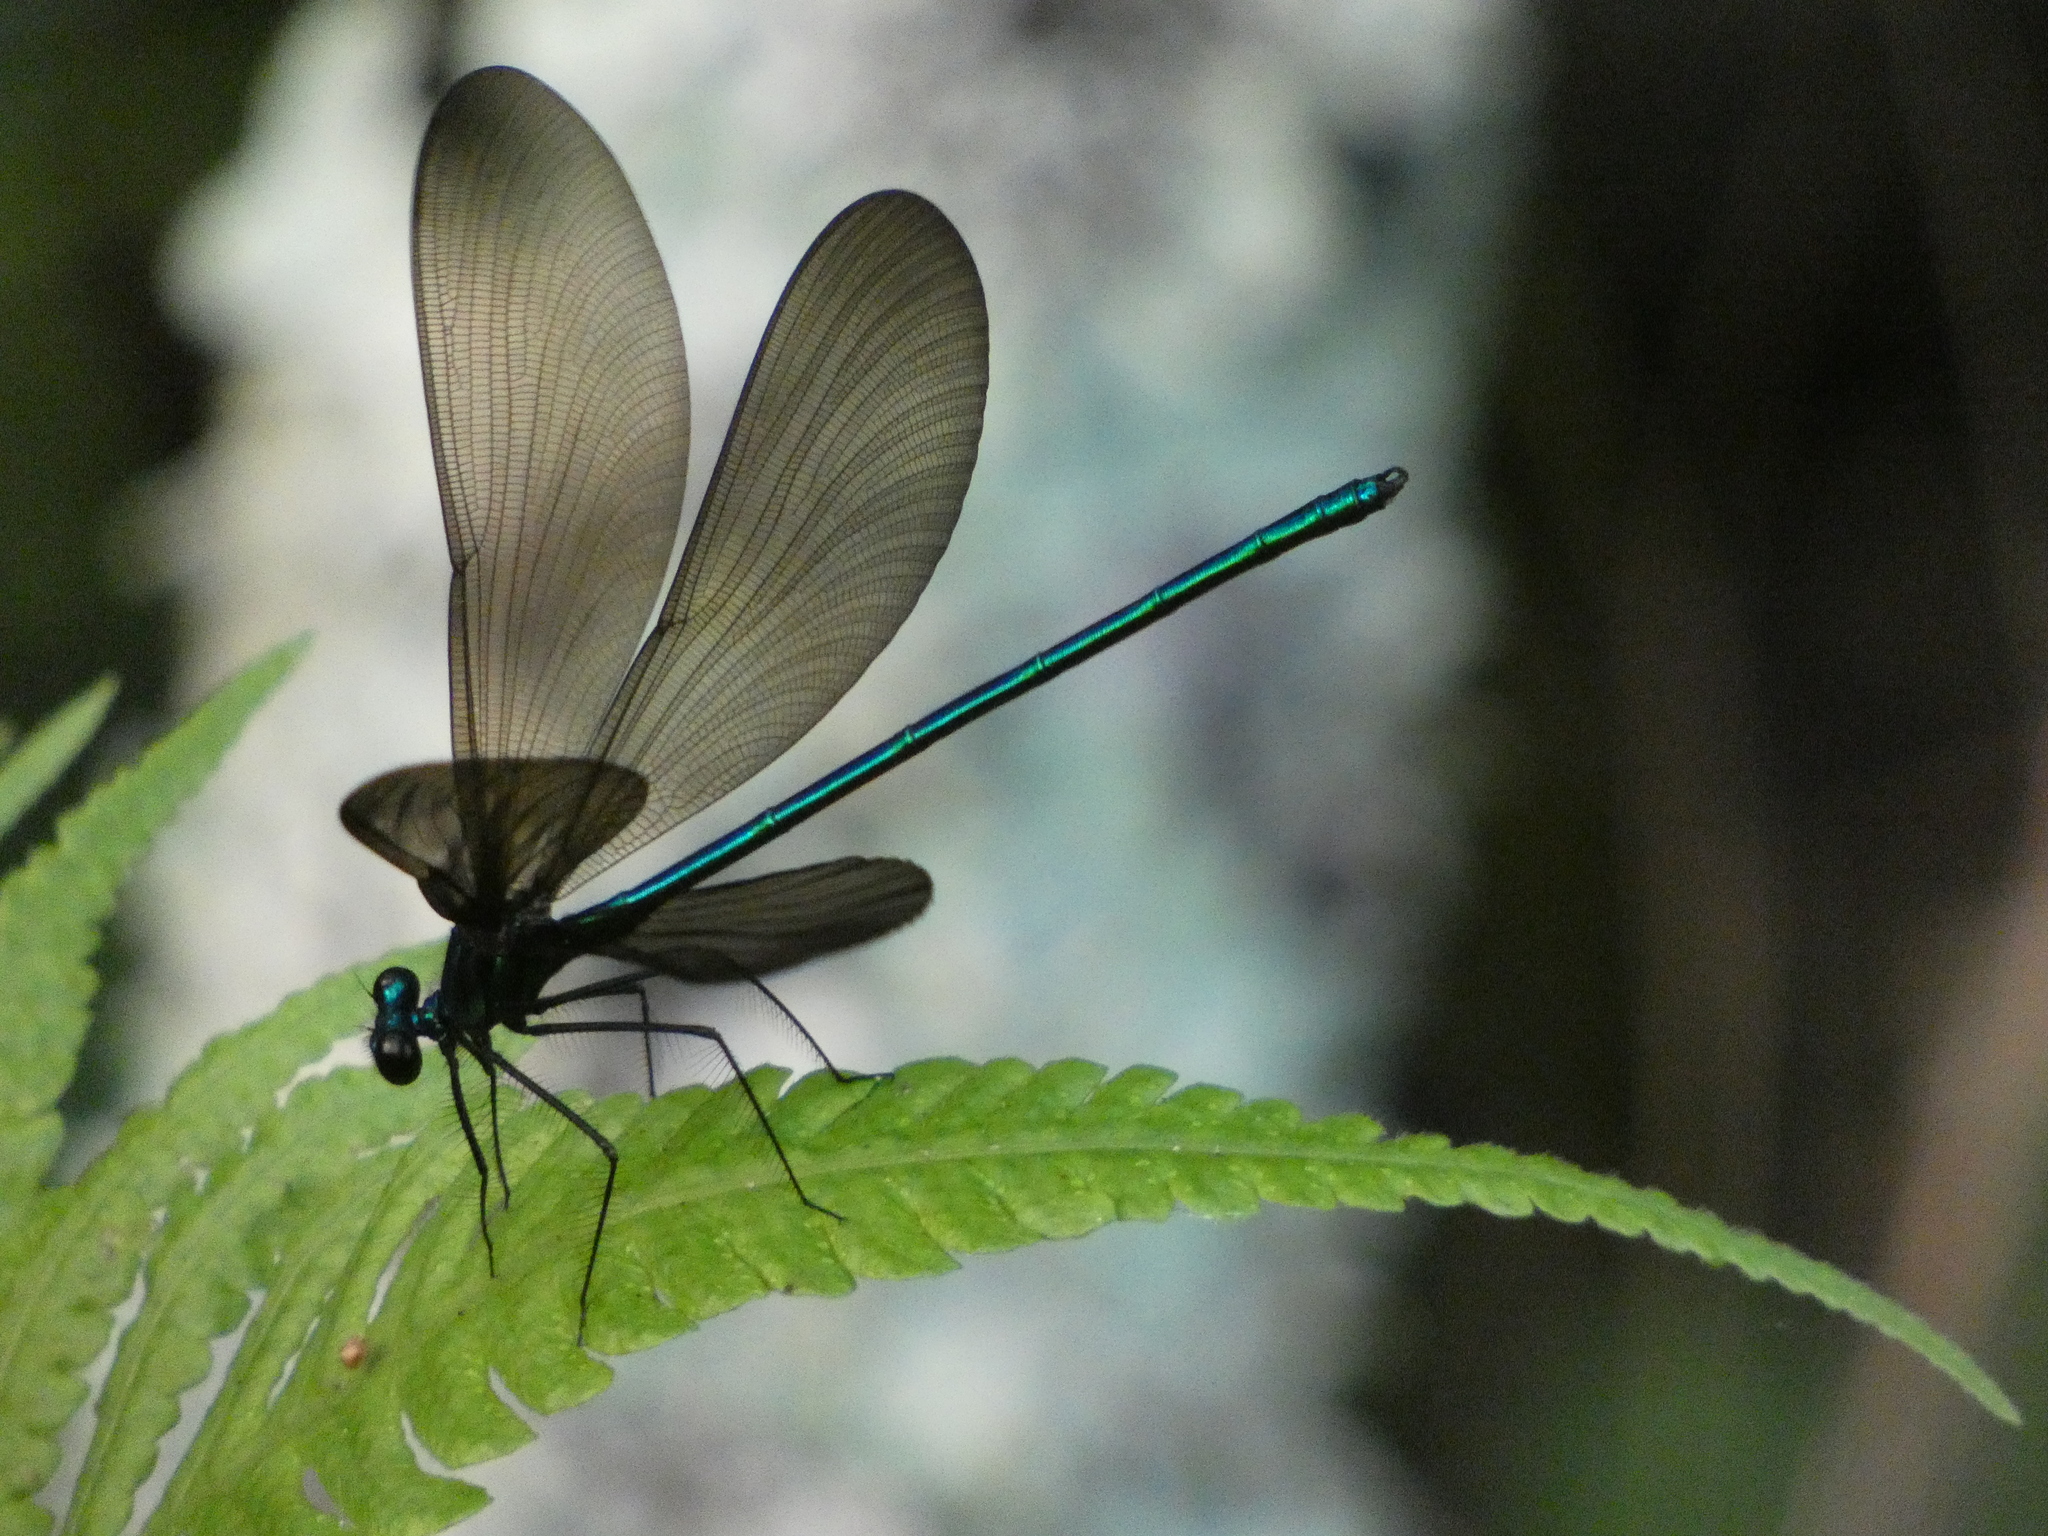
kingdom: Animalia
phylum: Arthropoda
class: Insecta
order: Odonata
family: Calopterygidae
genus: Calopteryx
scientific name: Calopteryx maculata
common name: Ebony jewelwing
